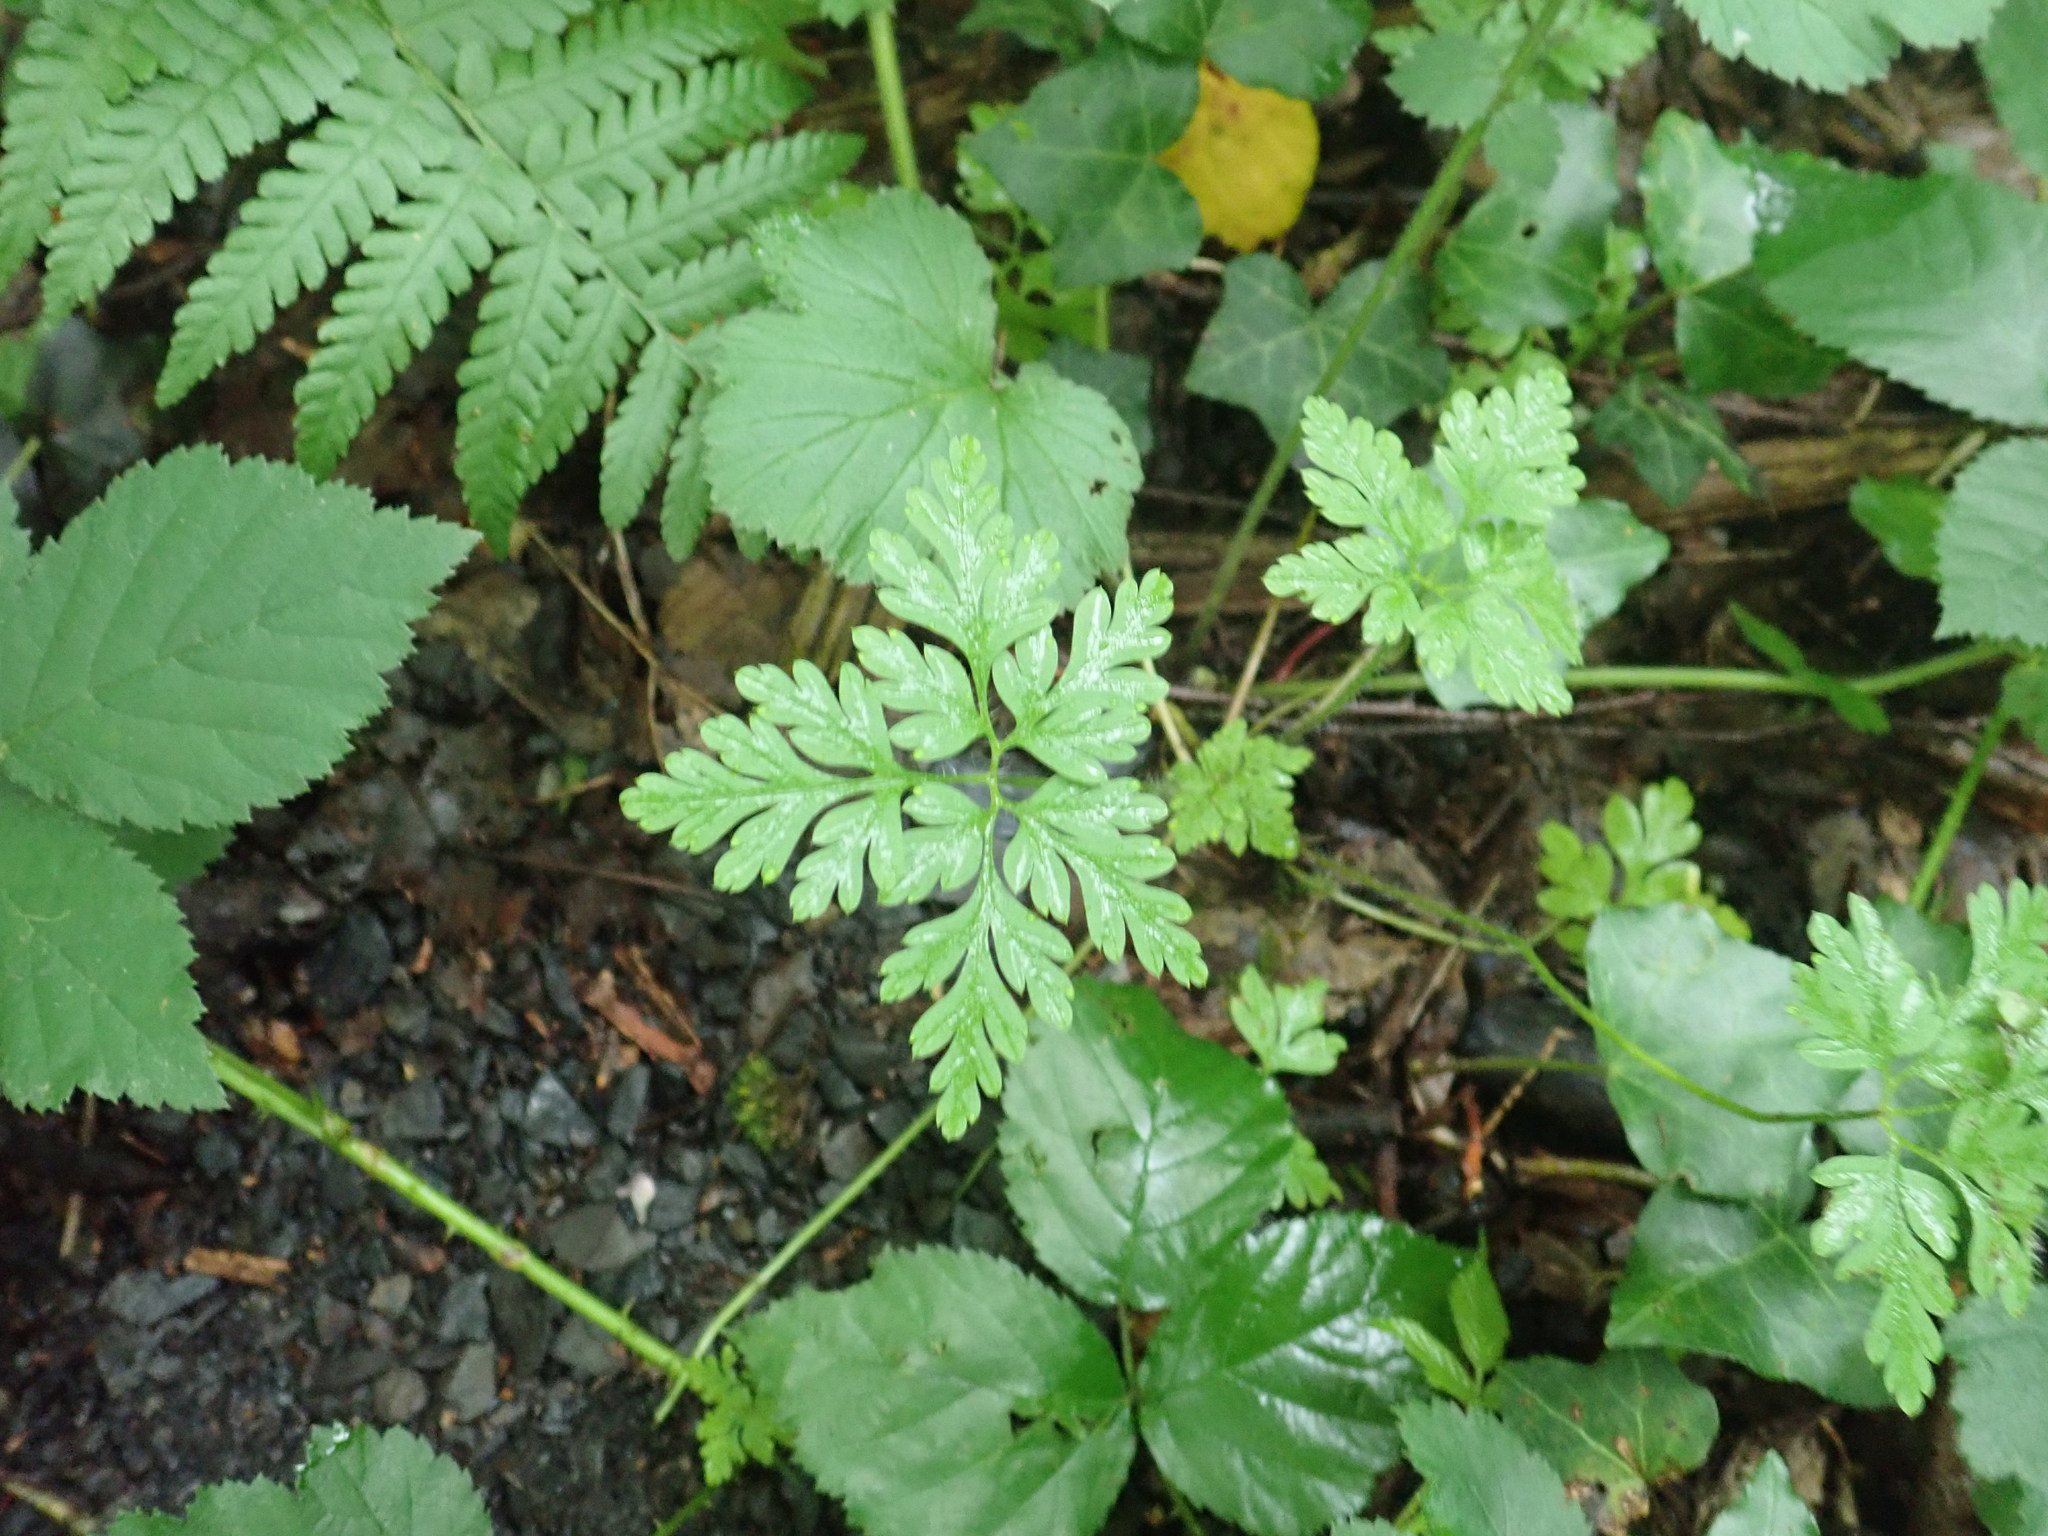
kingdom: Plantae
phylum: Tracheophyta
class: Magnoliopsida
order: Geraniales
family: Geraniaceae
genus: Geranium
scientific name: Geranium robertianum
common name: Herb-robert
